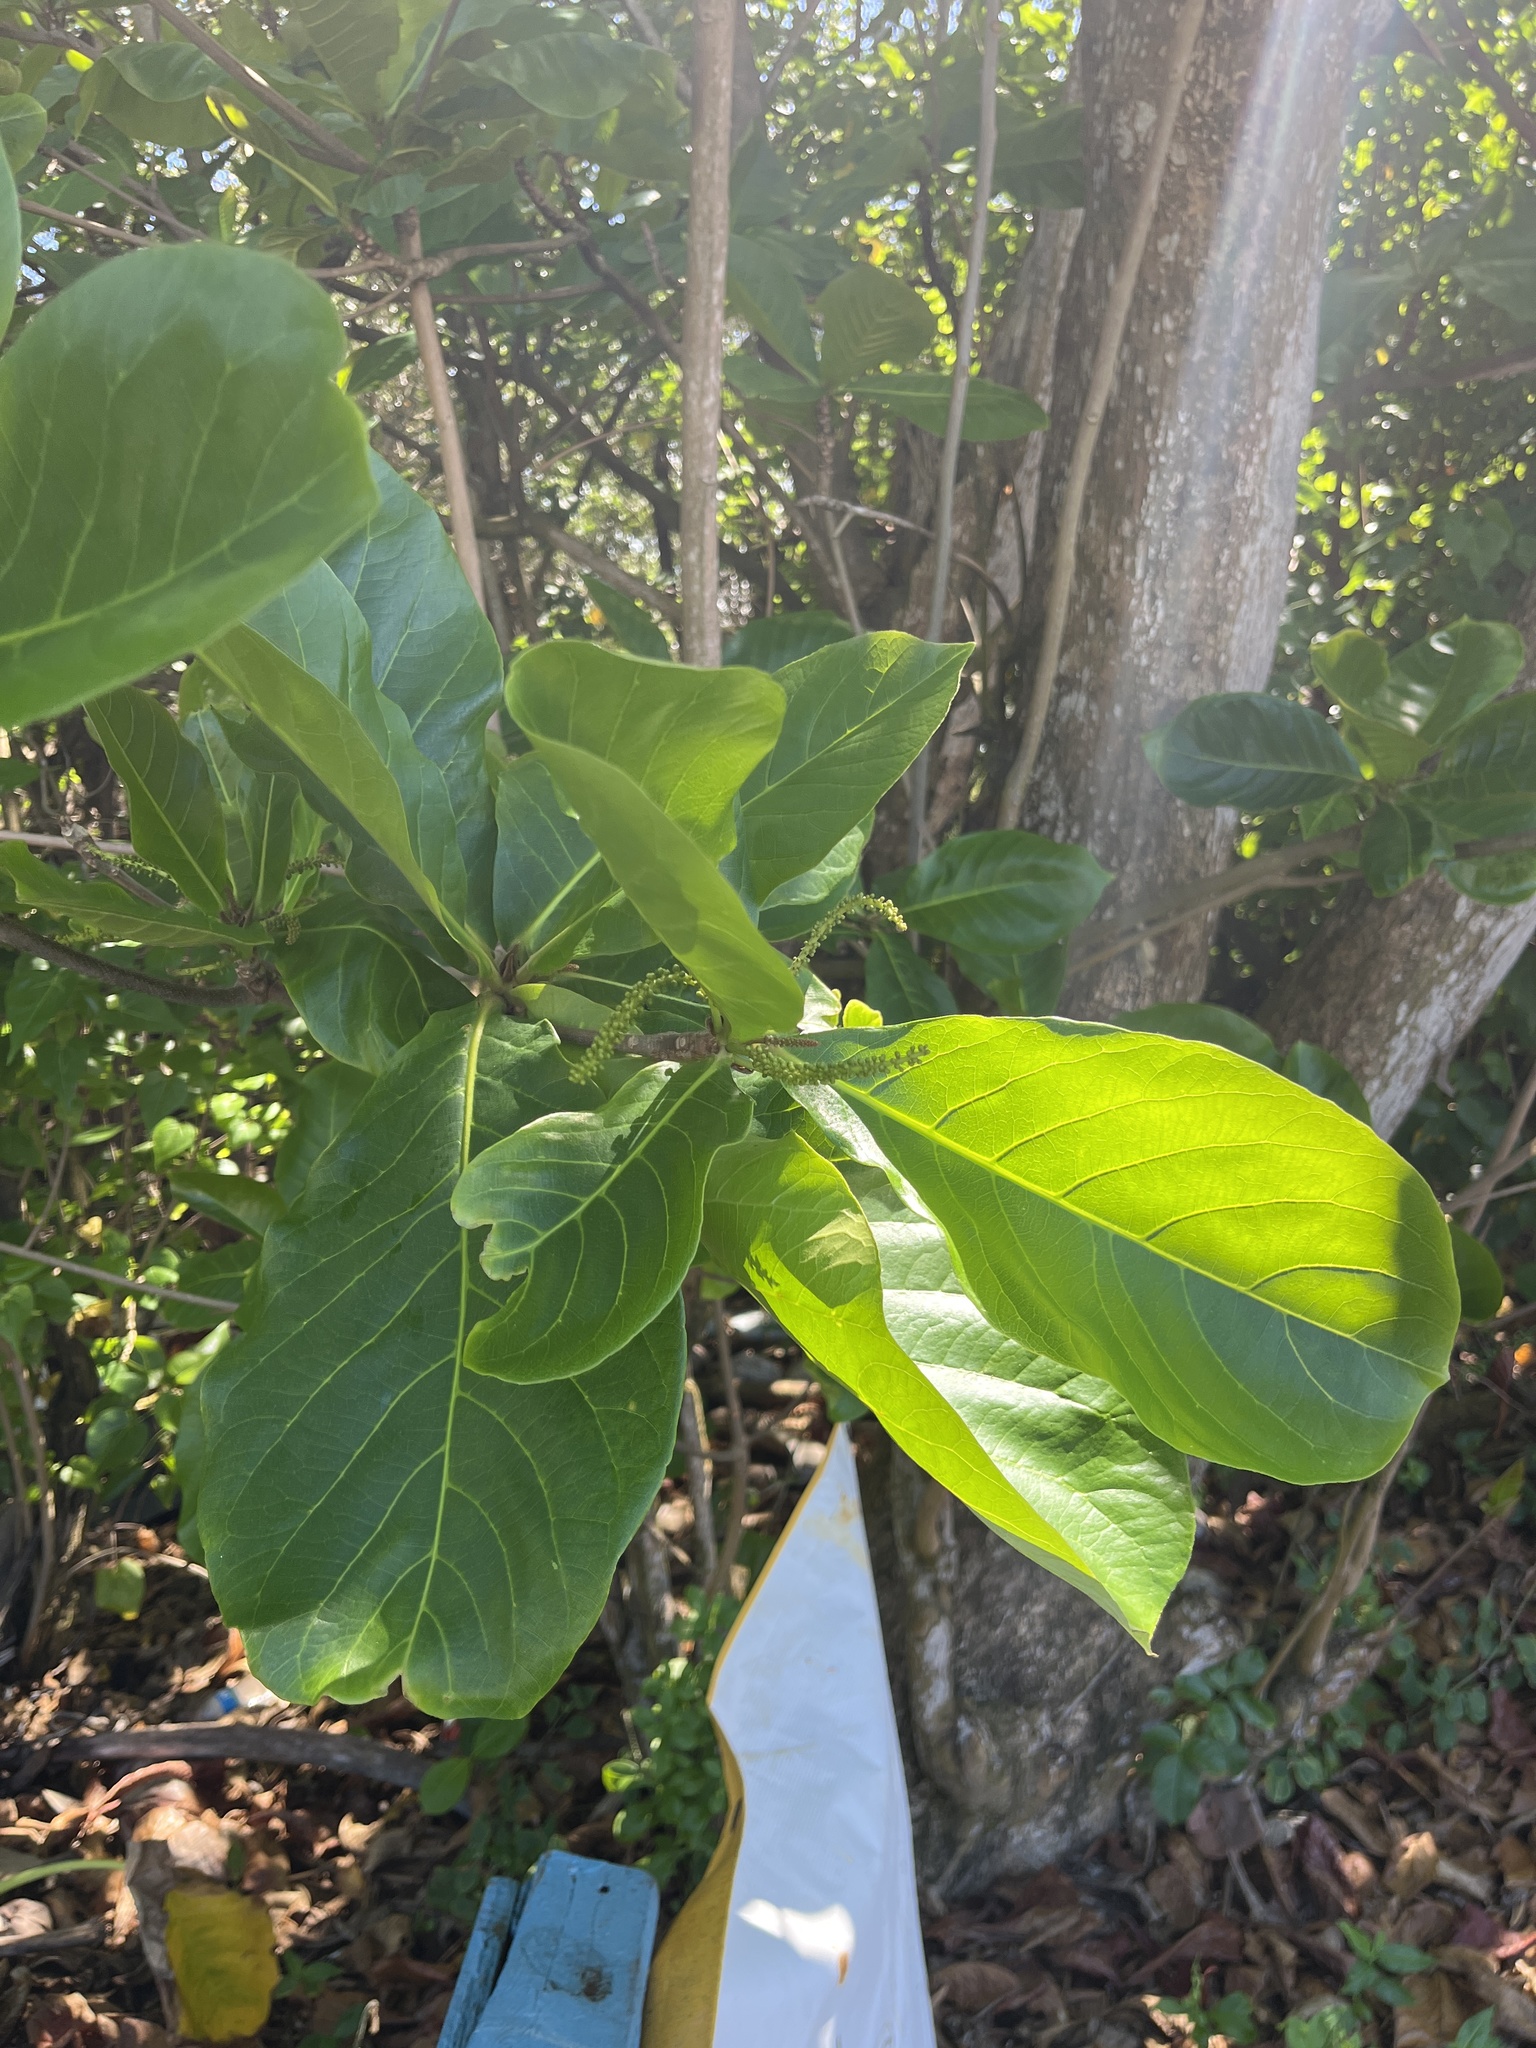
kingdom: Plantae
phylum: Tracheophyta
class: Magnoliopsida
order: Myrtales
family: Combretaceae
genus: Terminalia
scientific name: Terminalia catappa
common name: Tropical almond
